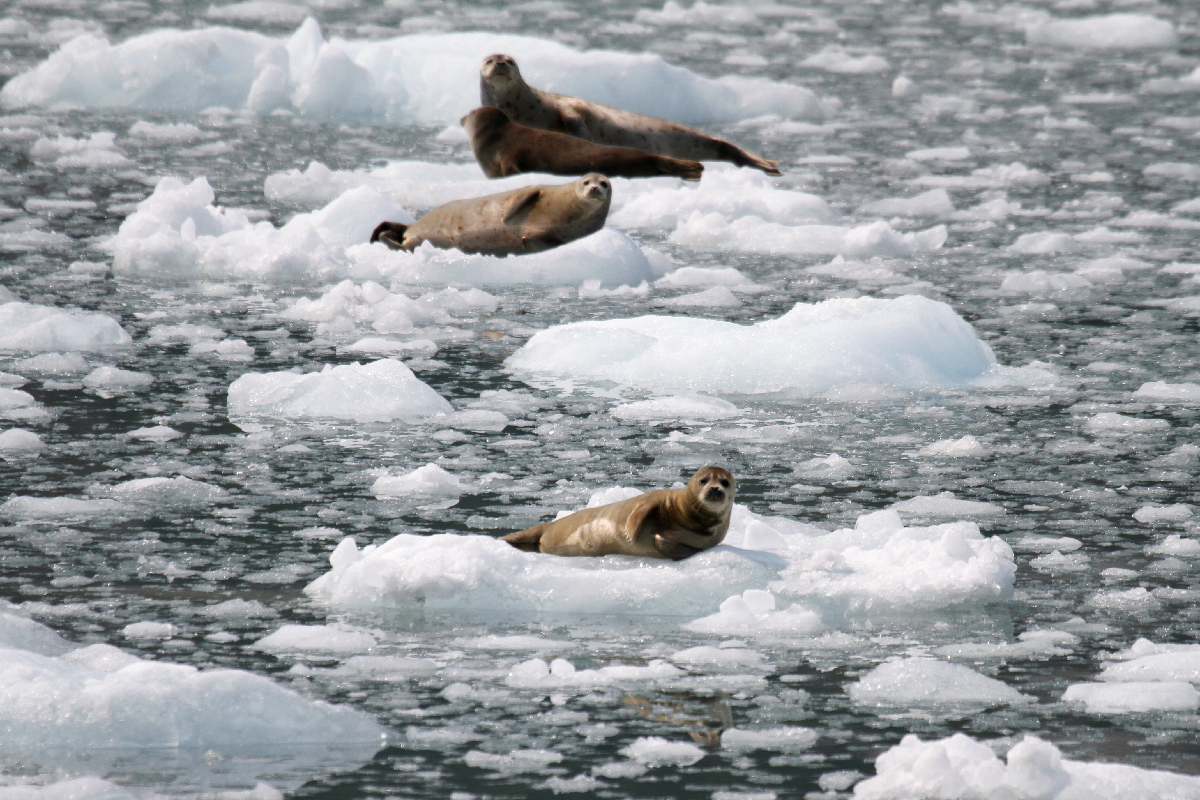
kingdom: Animalia
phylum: Chordata
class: Mammalia
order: Carnivora
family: Phocidae
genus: Phoca
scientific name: Phoca vitulina
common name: Harbor seal
